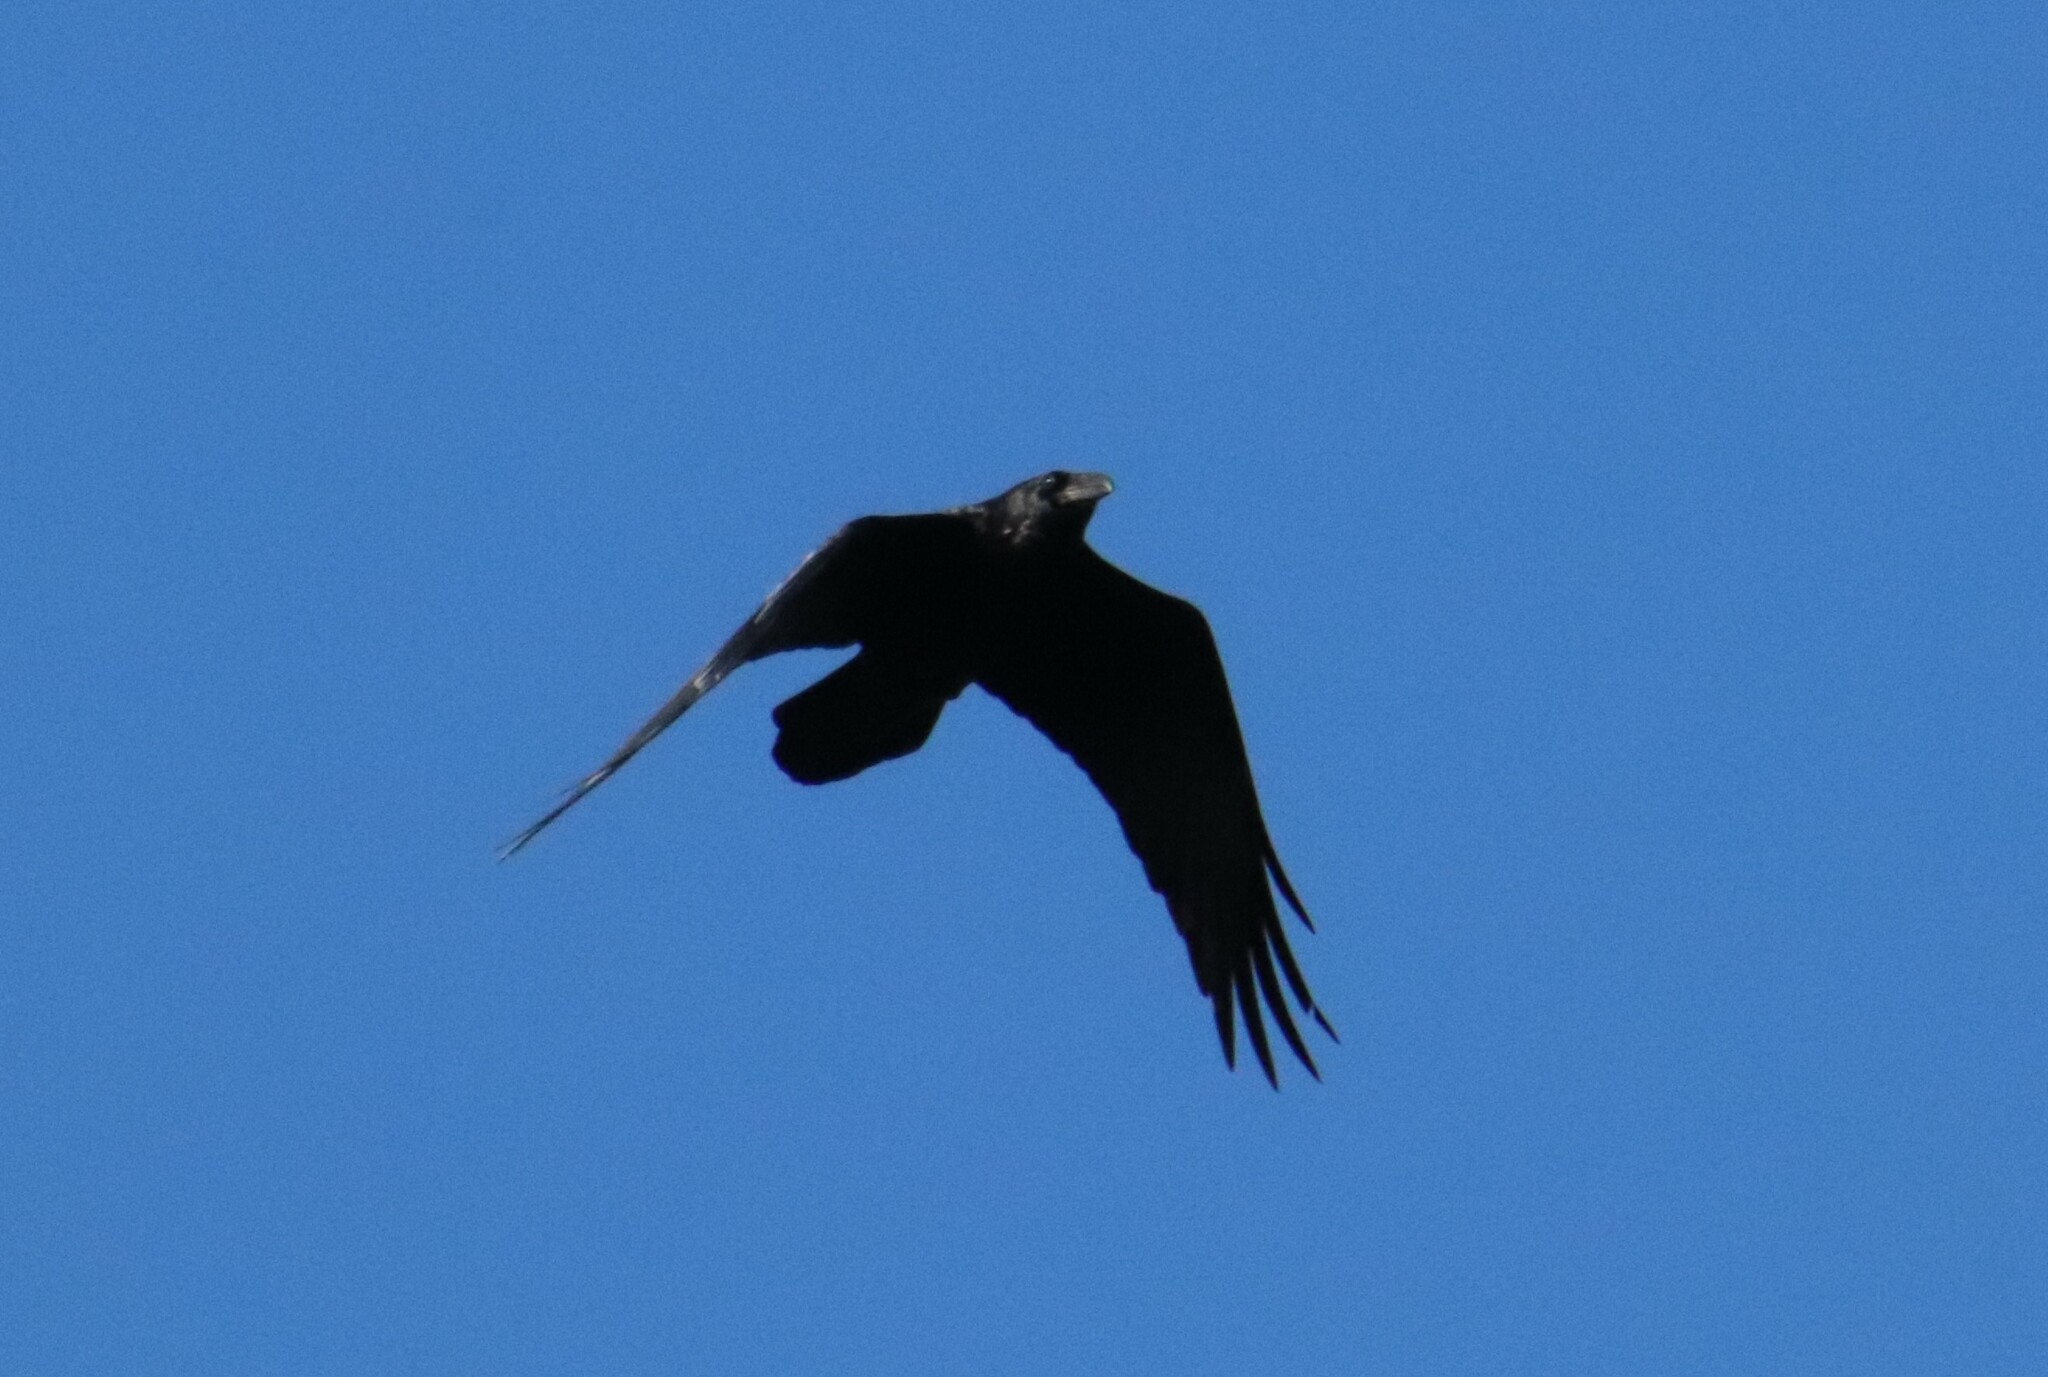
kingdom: Animalia
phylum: Chordata
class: Aves
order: Passeriformes
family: Corvidae
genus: Corvus
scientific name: Corvus corax
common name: Common raven
